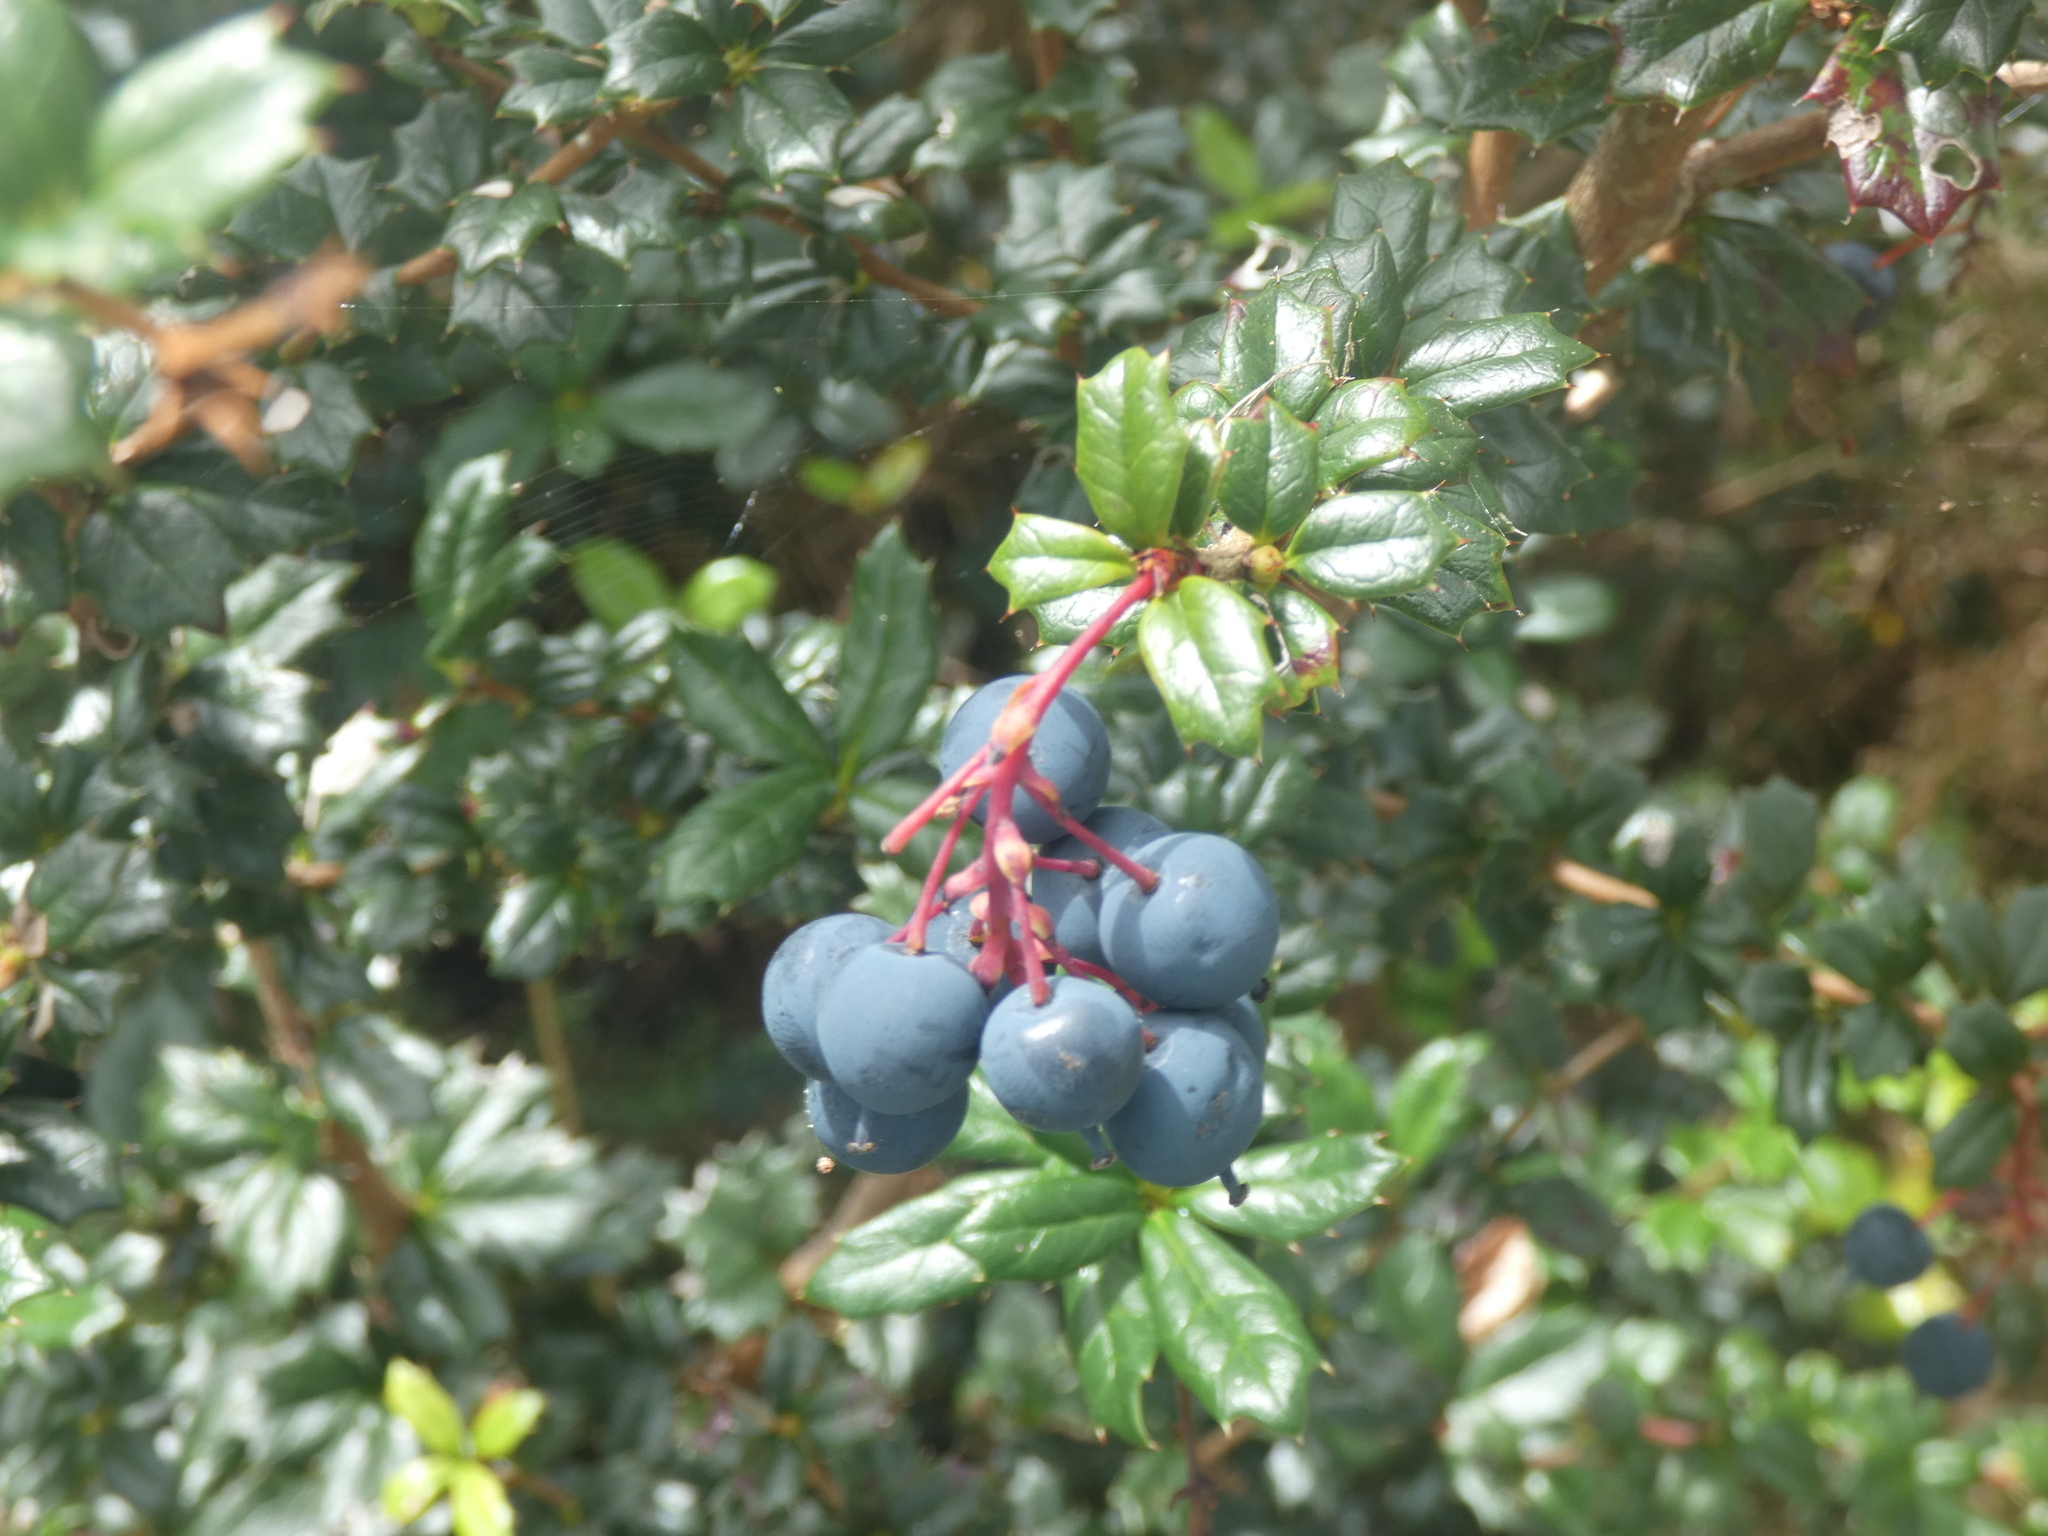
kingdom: Plantae
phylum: Tracheophyta
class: Magnoliopsida
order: Ranunculales
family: Berberidaceae
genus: Berberis
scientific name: Berberis darwinii
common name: Darwin's barberry
